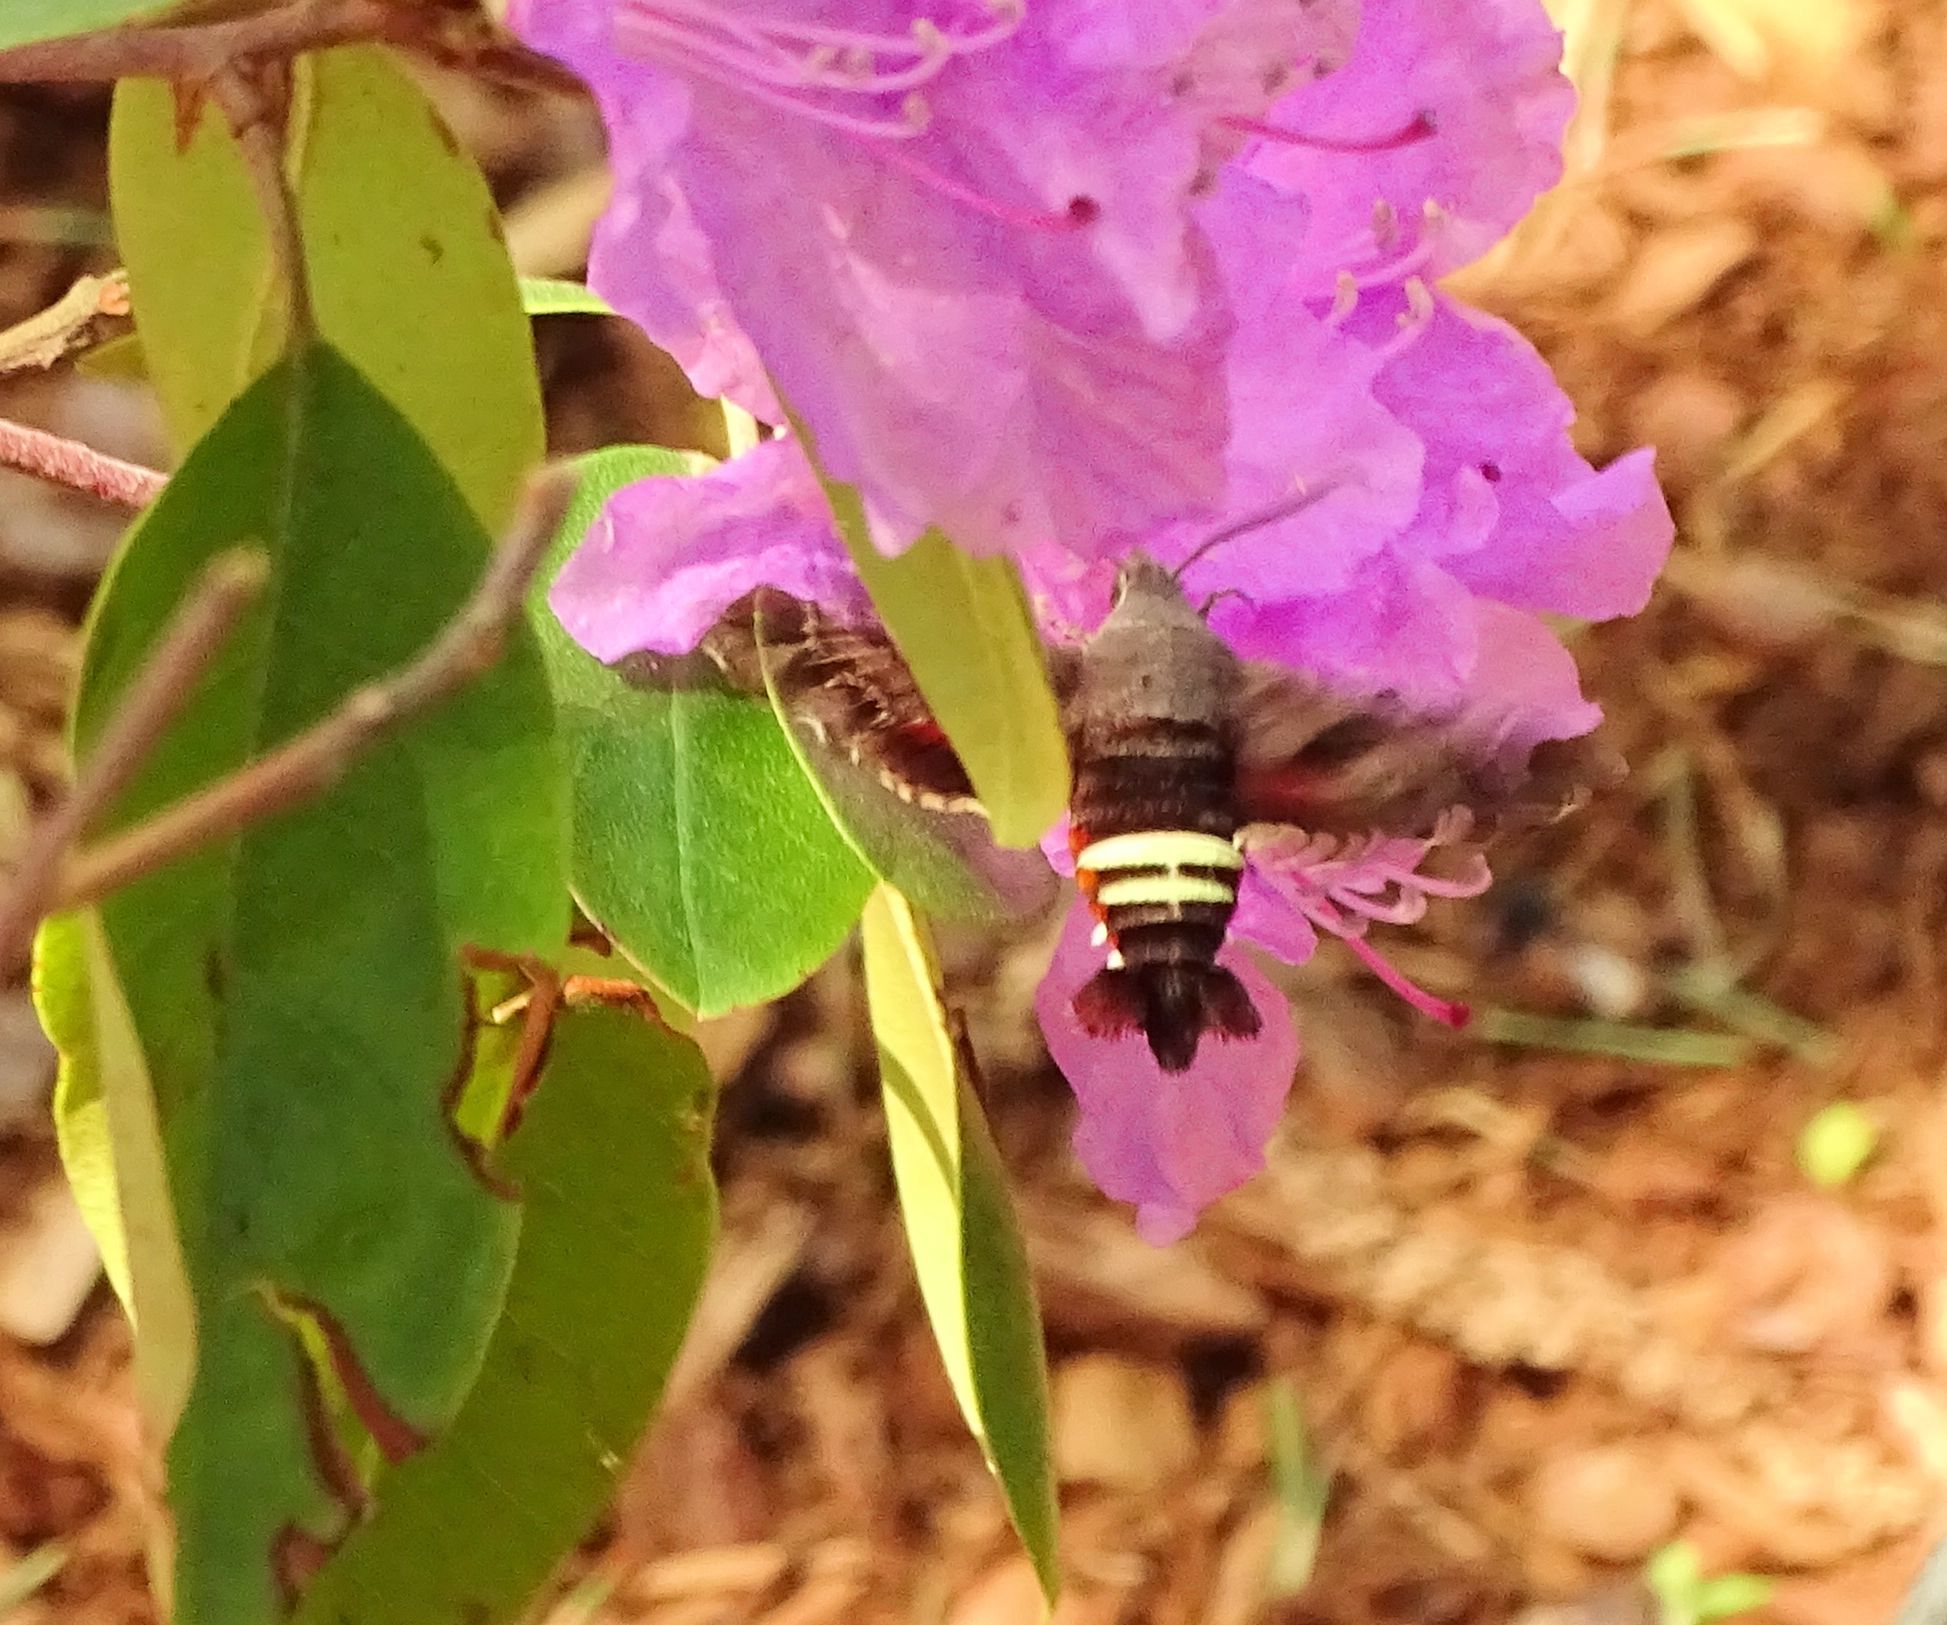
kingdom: Animalia
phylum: Arthropoda
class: Insecta
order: Lepidoptera
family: Sphingidae
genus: Amphion
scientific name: Amphion floridensis
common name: Nessus sphinx
